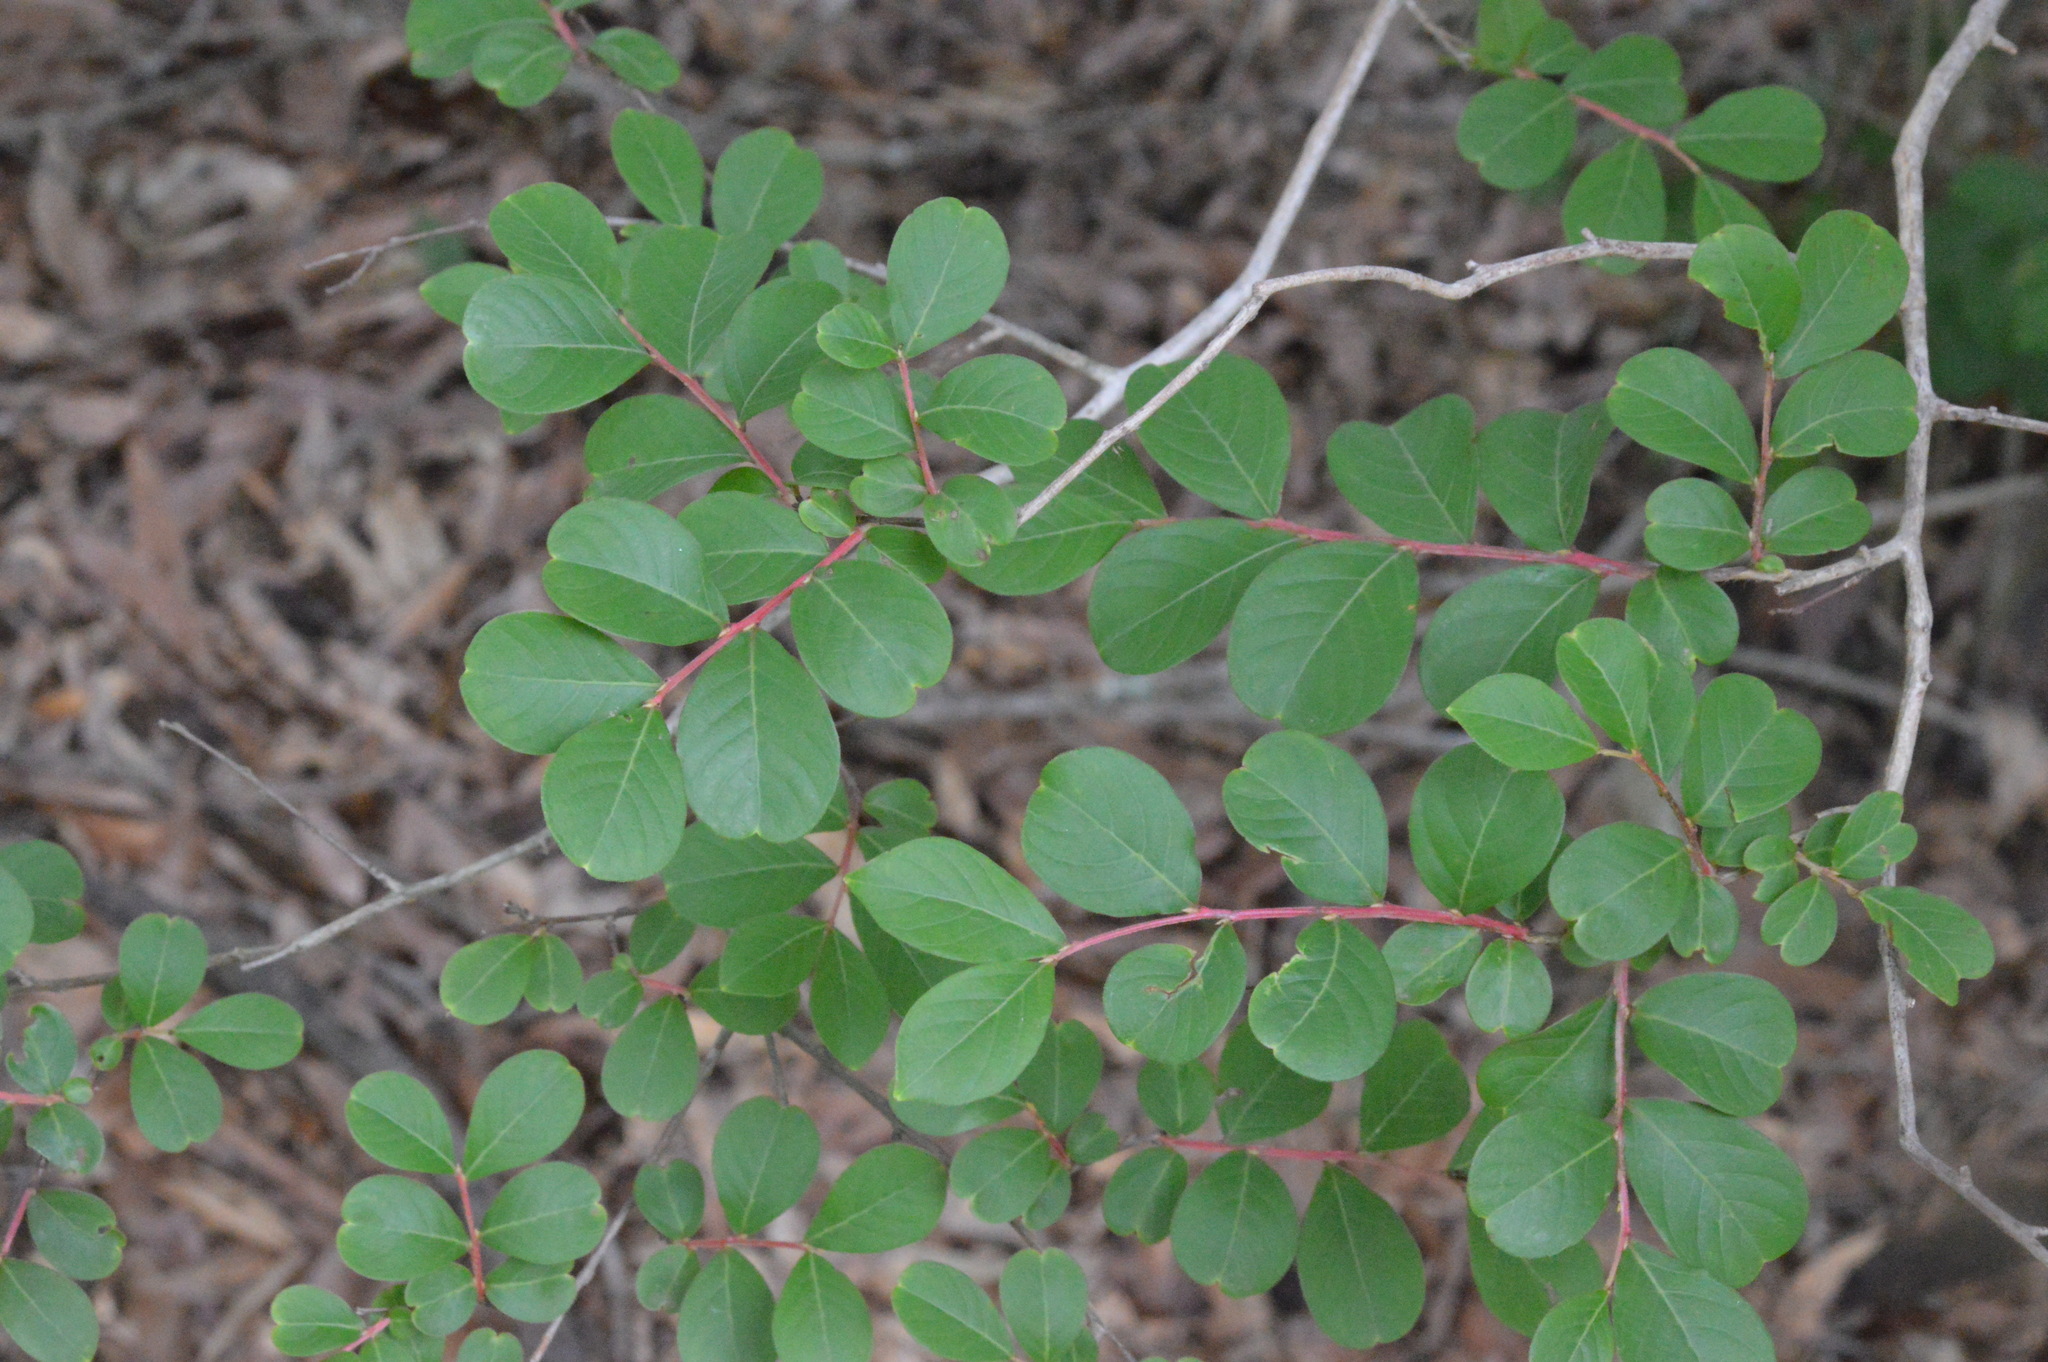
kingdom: Plantae
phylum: Tracheophyta
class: Magnoliopsida
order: Myrtales
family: Lythraceae
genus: Lagerstroemia
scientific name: Lagerstroemia indica
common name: Crape-myrtle
